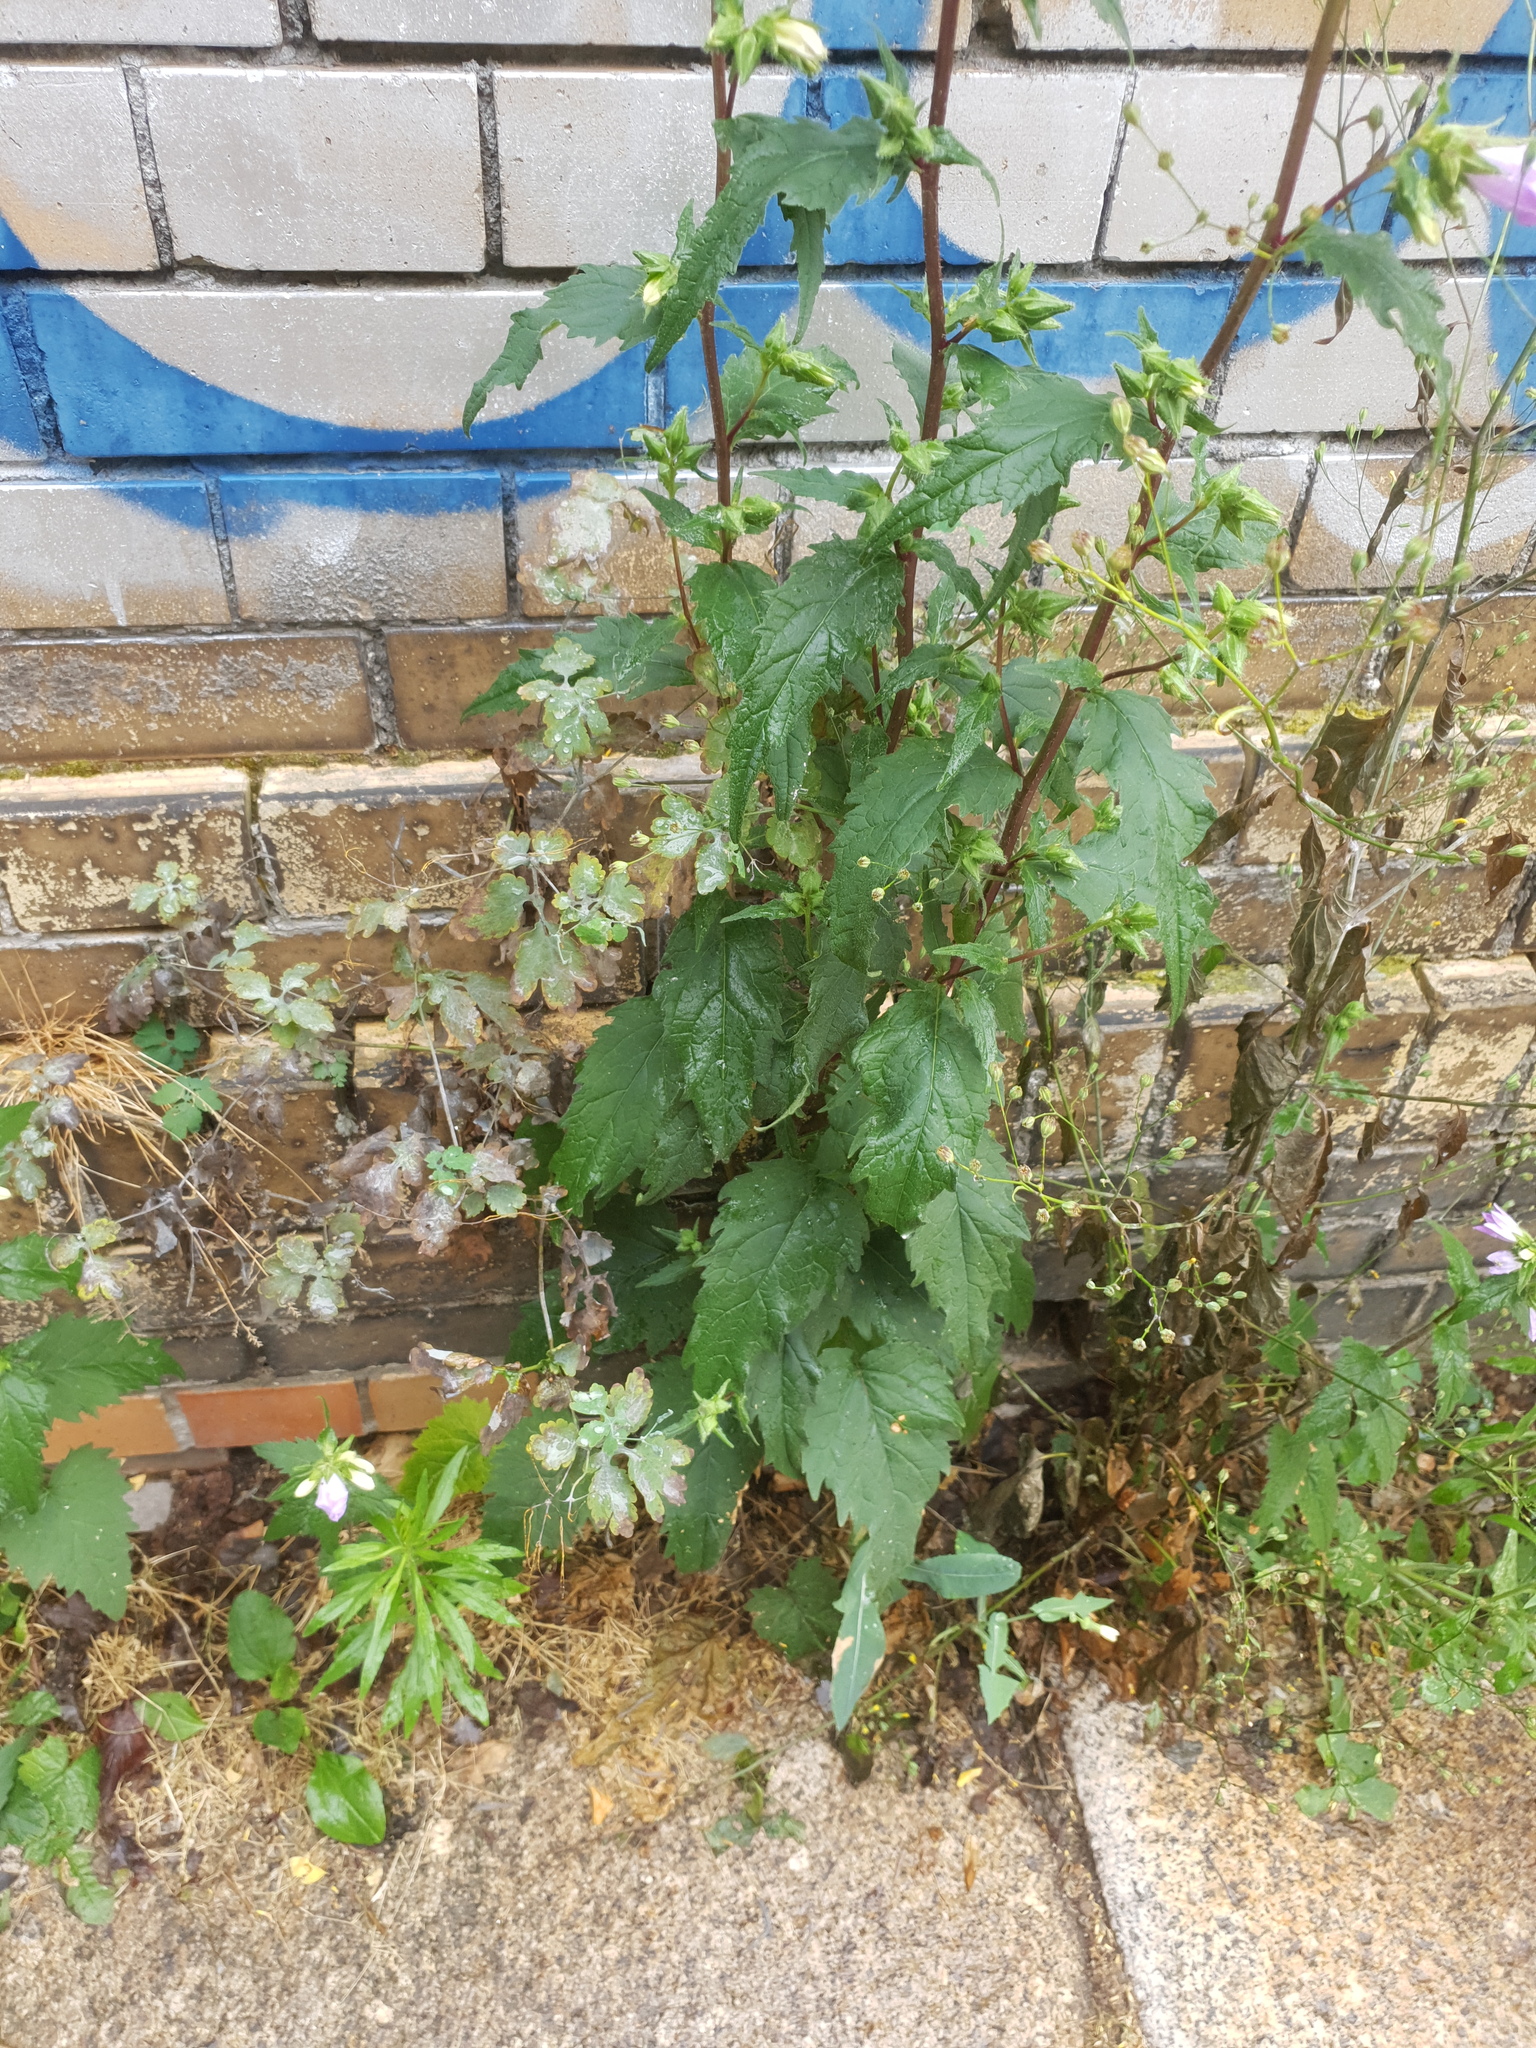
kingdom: Plantae
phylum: Tracheophyta
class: Magnoliopsida
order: Asterales
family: Campanulaceae
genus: Campanula
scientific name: Campanula trachelium
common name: Nettle-leaved bellflower
